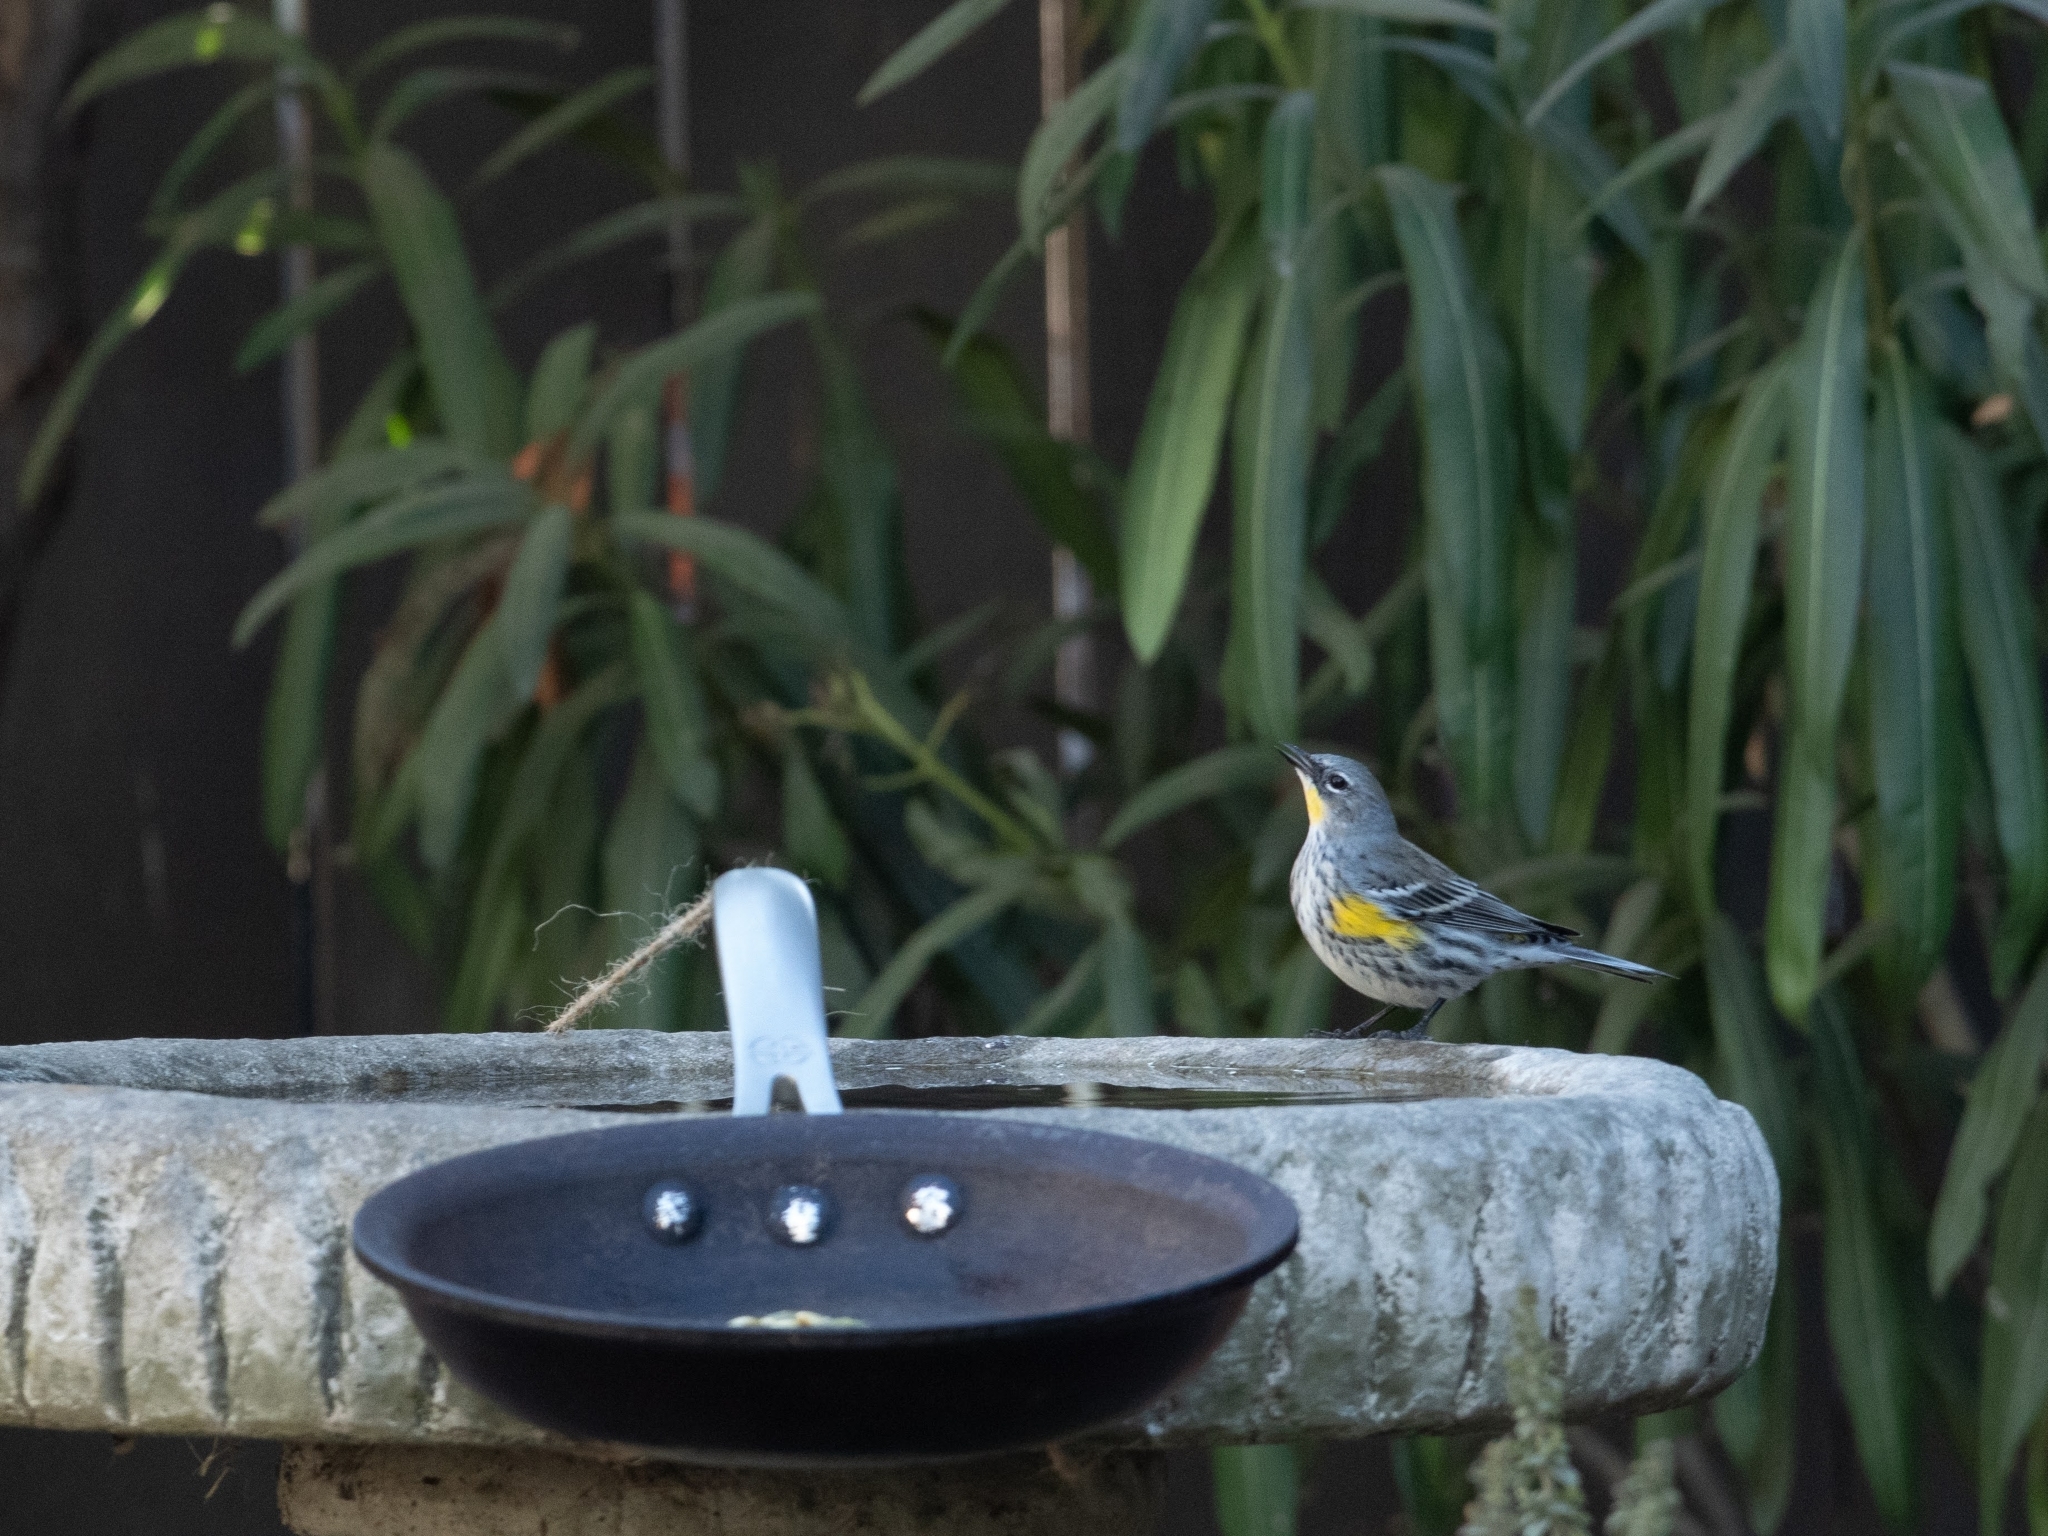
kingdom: Animalia
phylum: Chordata
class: Aves
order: Passeriformes
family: Parulidae
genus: Setophaga
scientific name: Setophaga coronata
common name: Myrtle warbler
